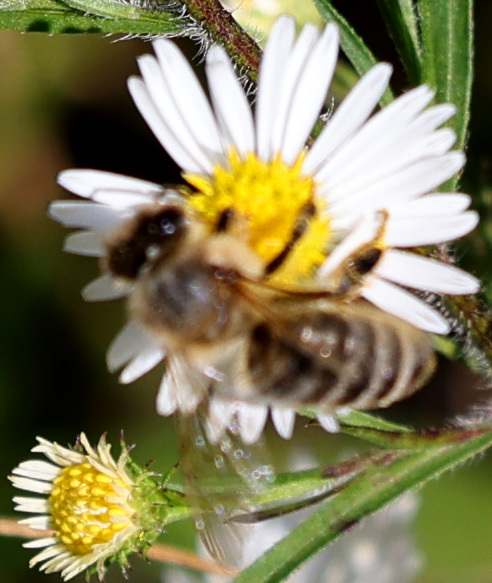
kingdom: Animalia
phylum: Arthropoda
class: Insecta
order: Hymenoptera
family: Apidae
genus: Apis
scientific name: Apis mellifera
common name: Honey bee
